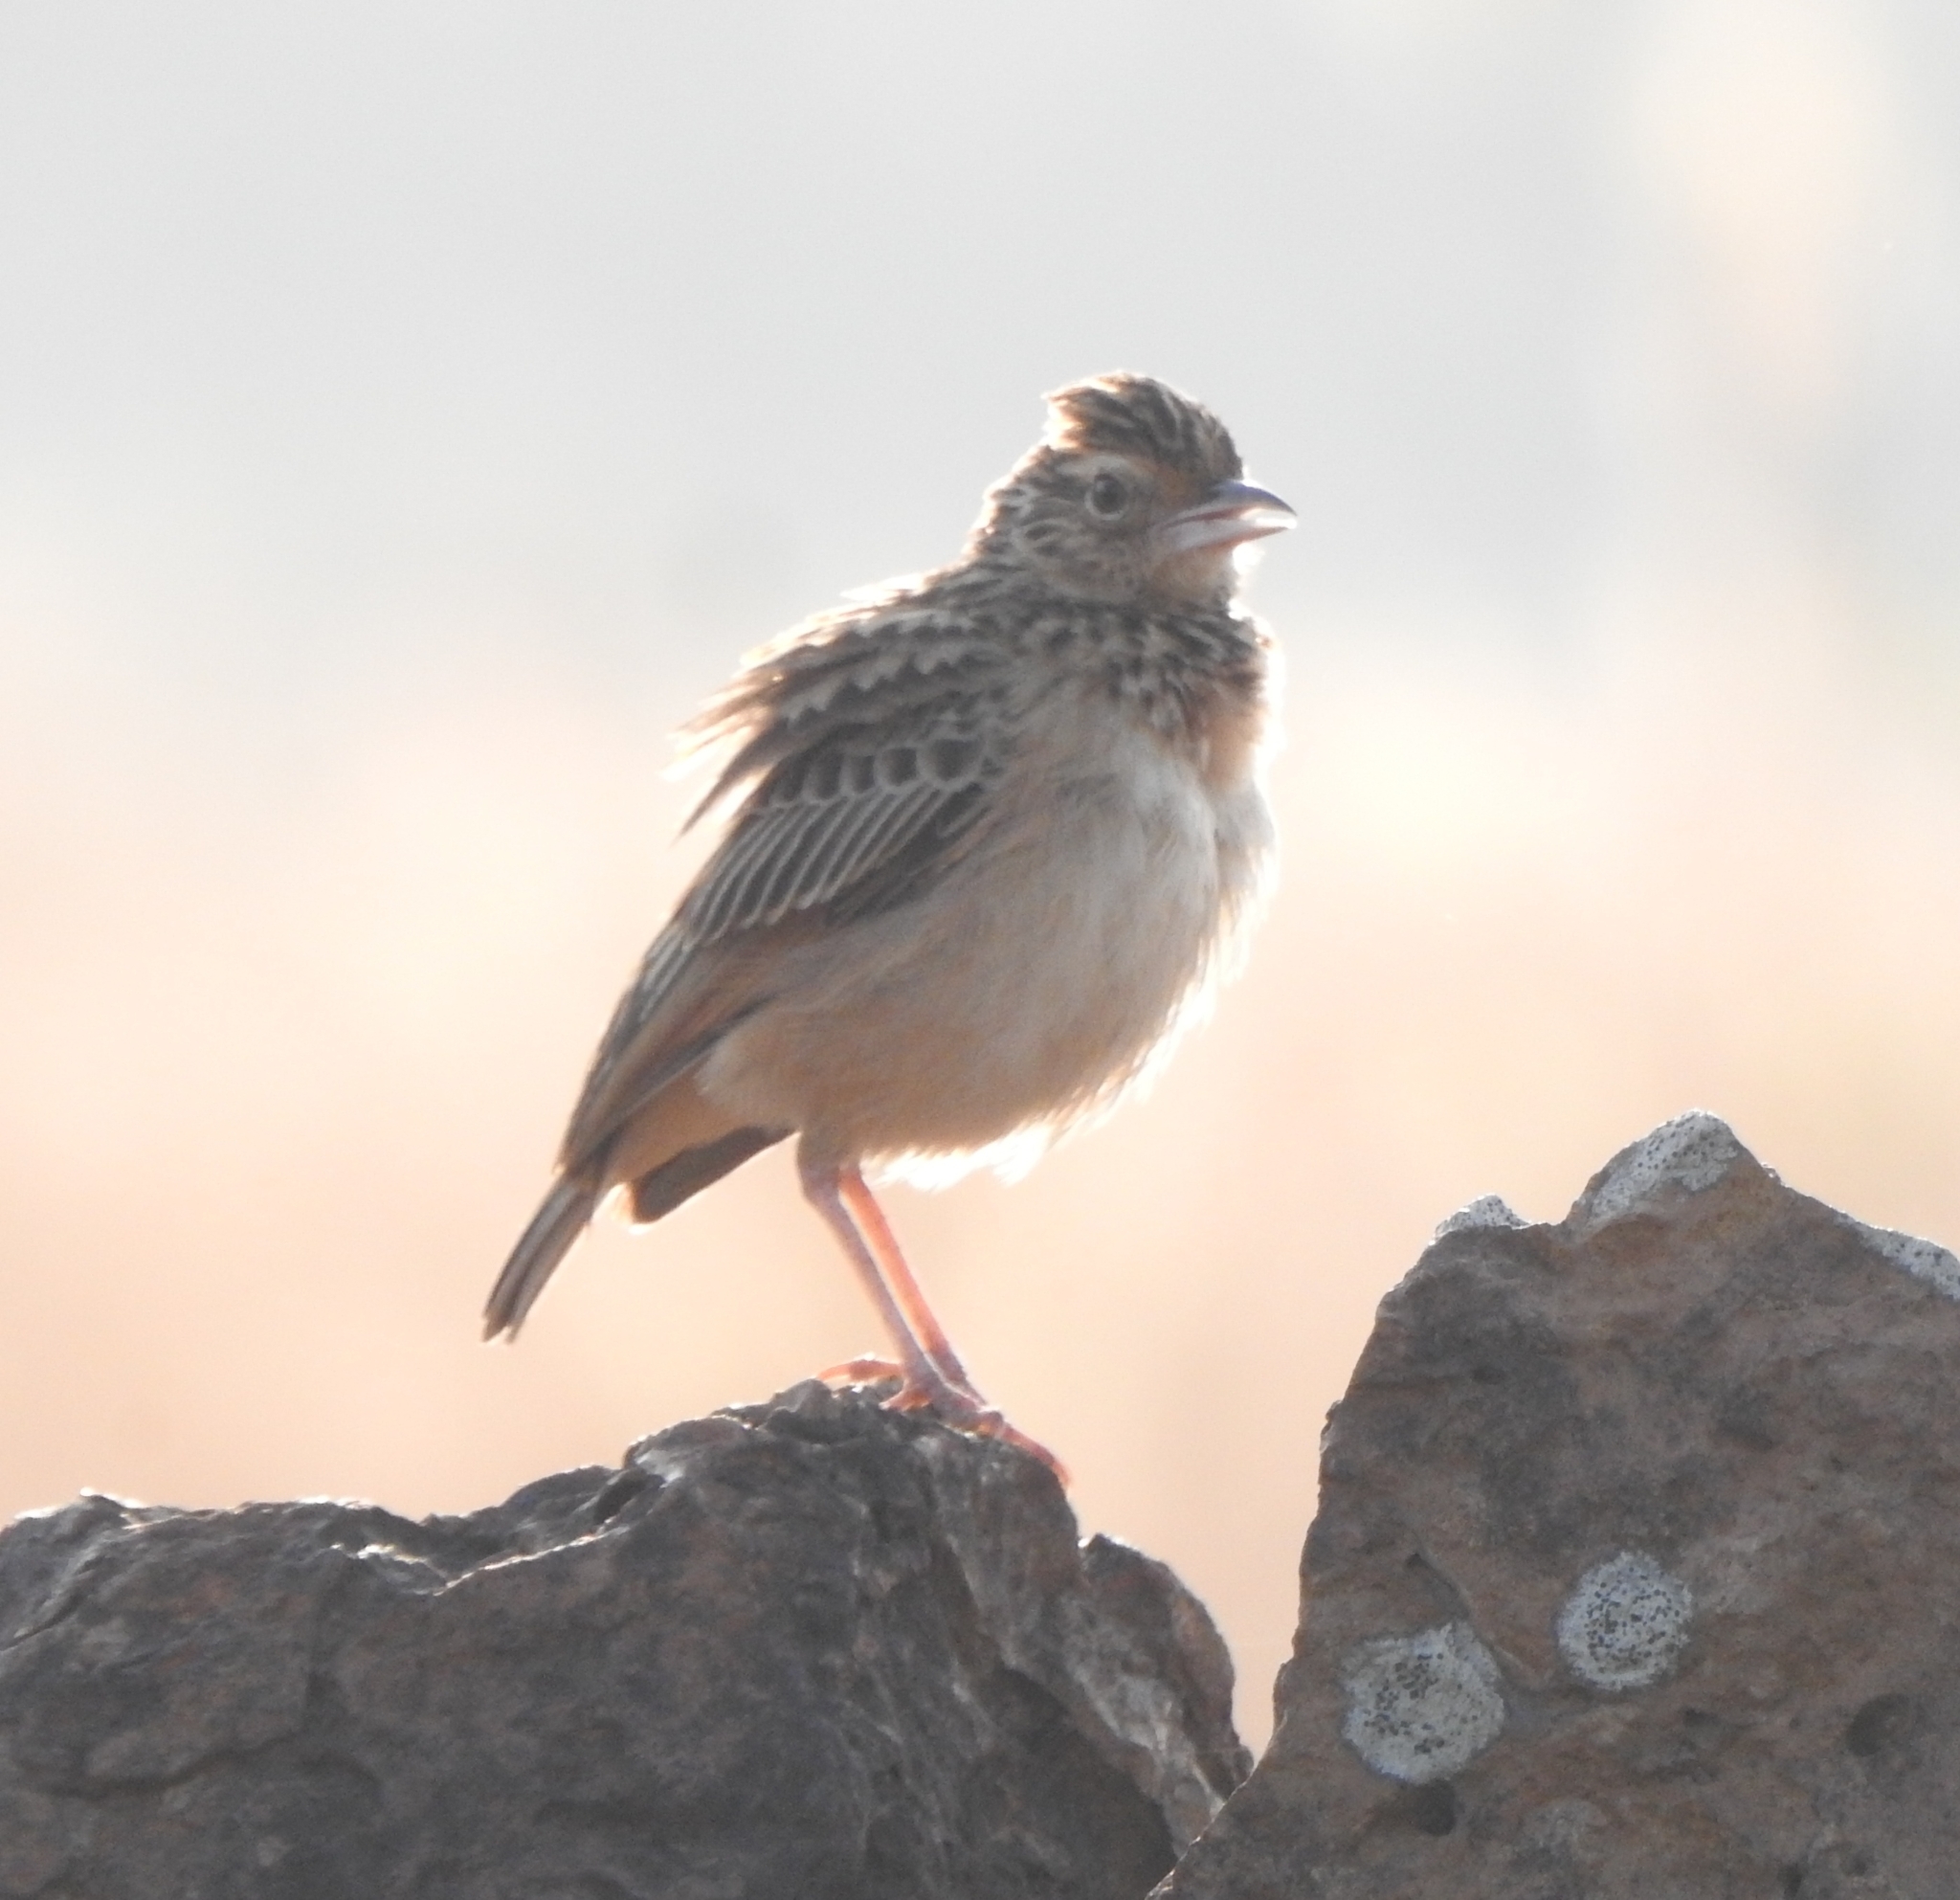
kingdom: Animalia
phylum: Chordata
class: Aves
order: Passeriformes
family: Alaudidae
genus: Mirafra
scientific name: Mirafra affinis
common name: Jerdon's bushlark
